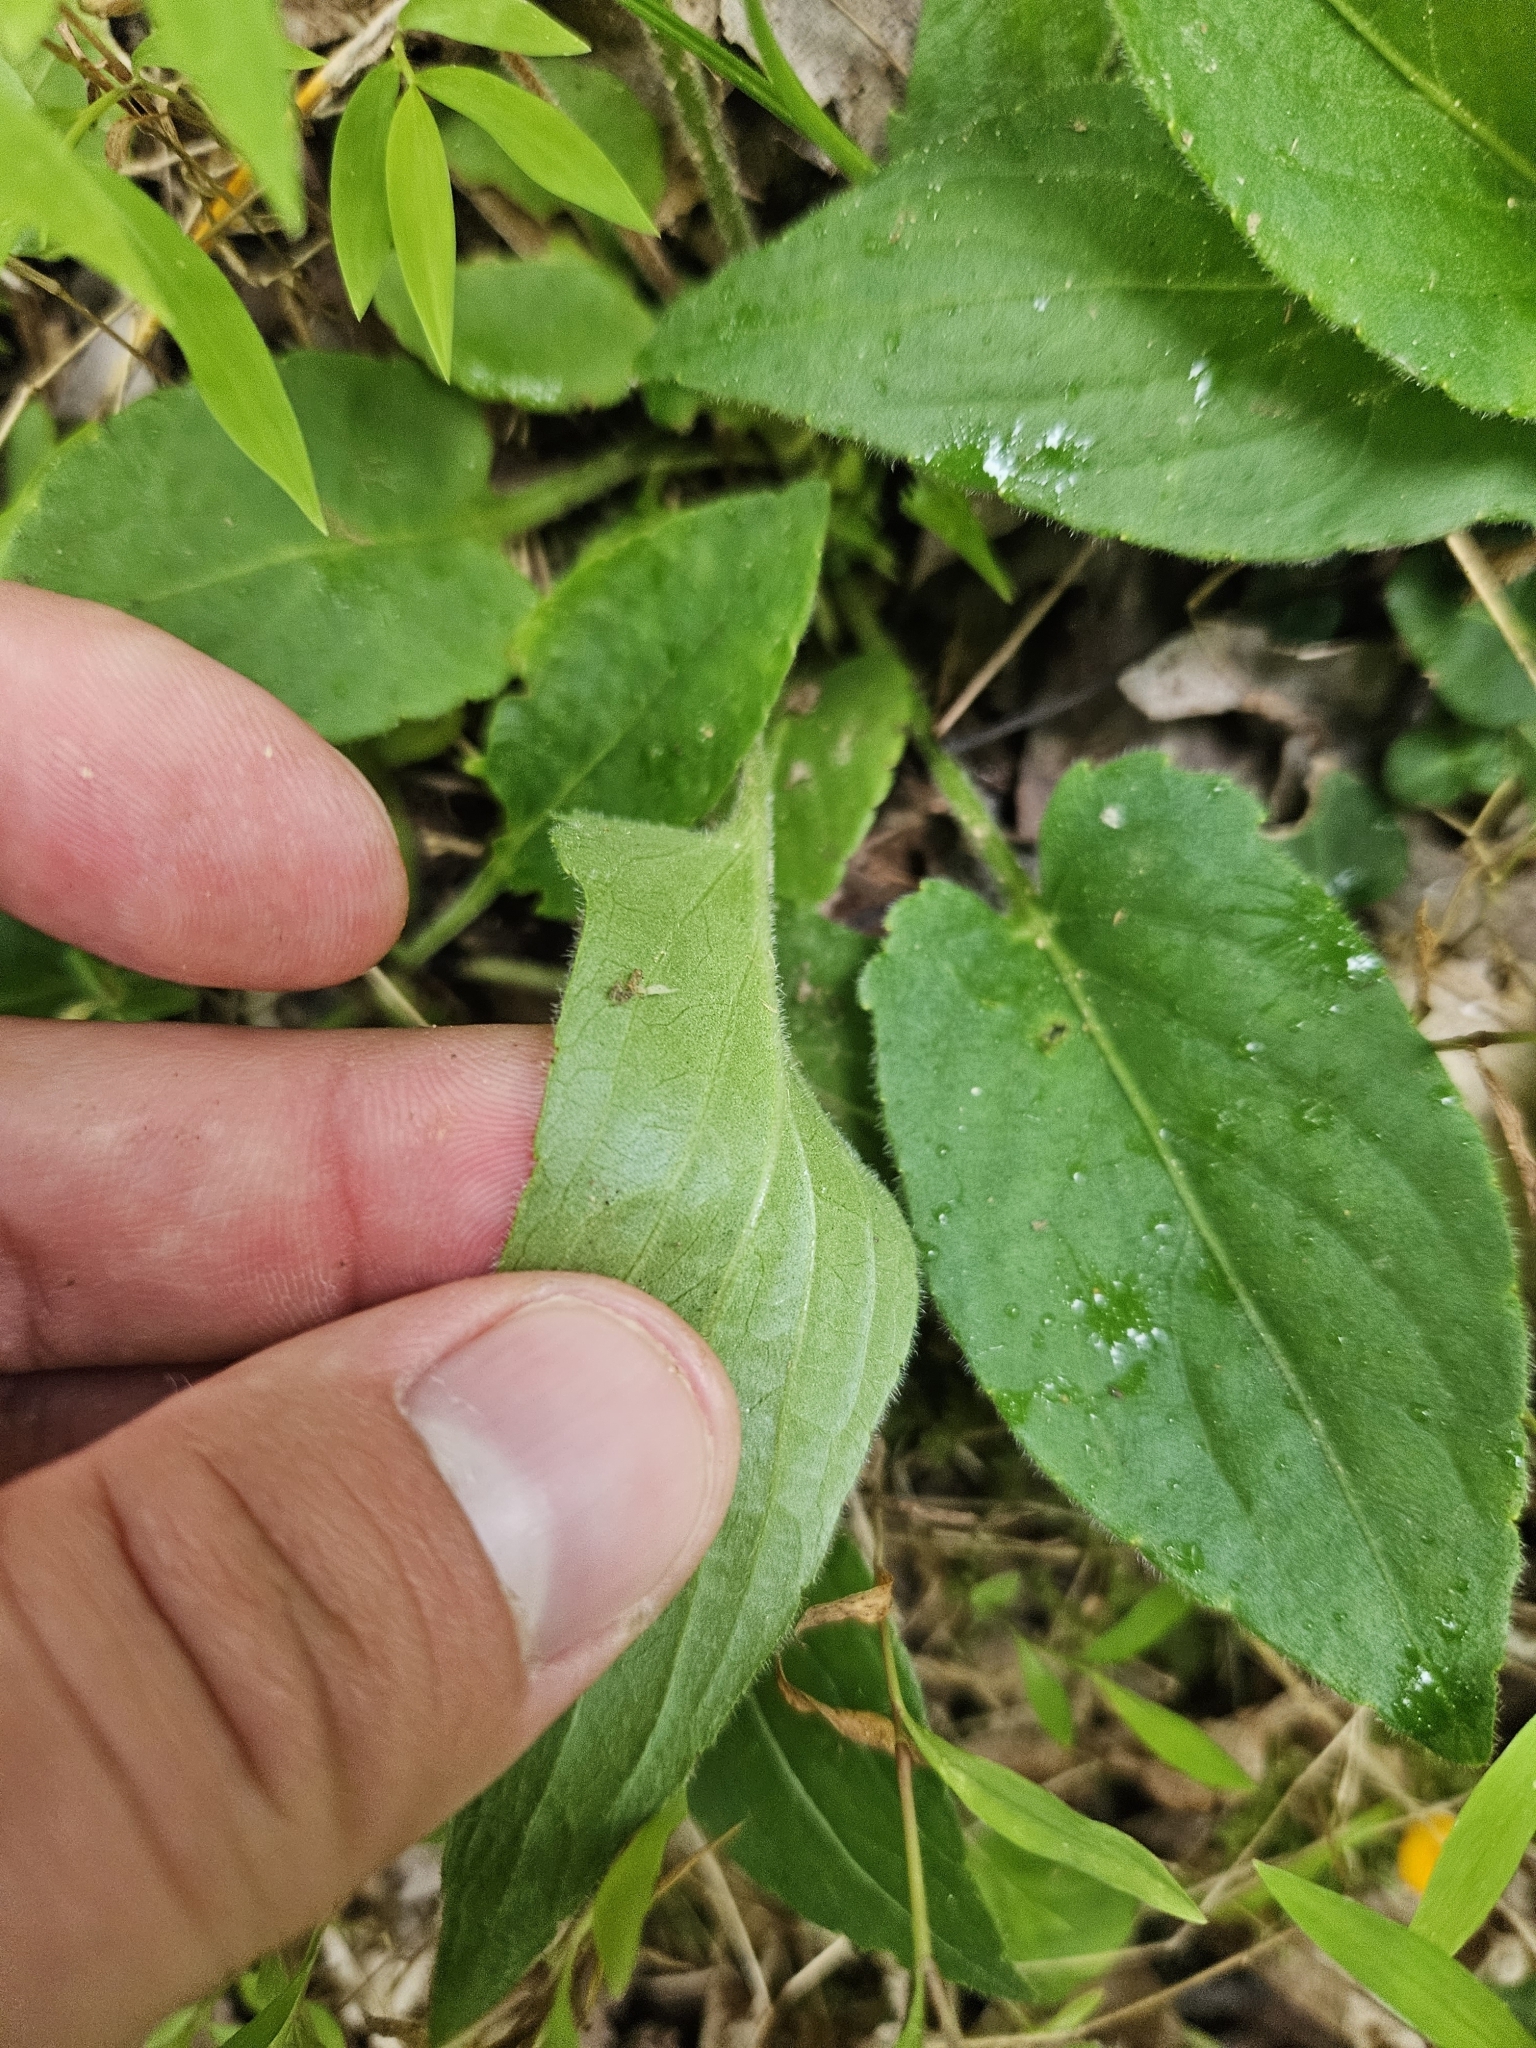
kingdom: Plantae
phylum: Tracheophyta
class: Magnoliopsida
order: Malpighiales
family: Violaceae
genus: Viola
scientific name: Viola sagittata
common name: Arrowhead violet
